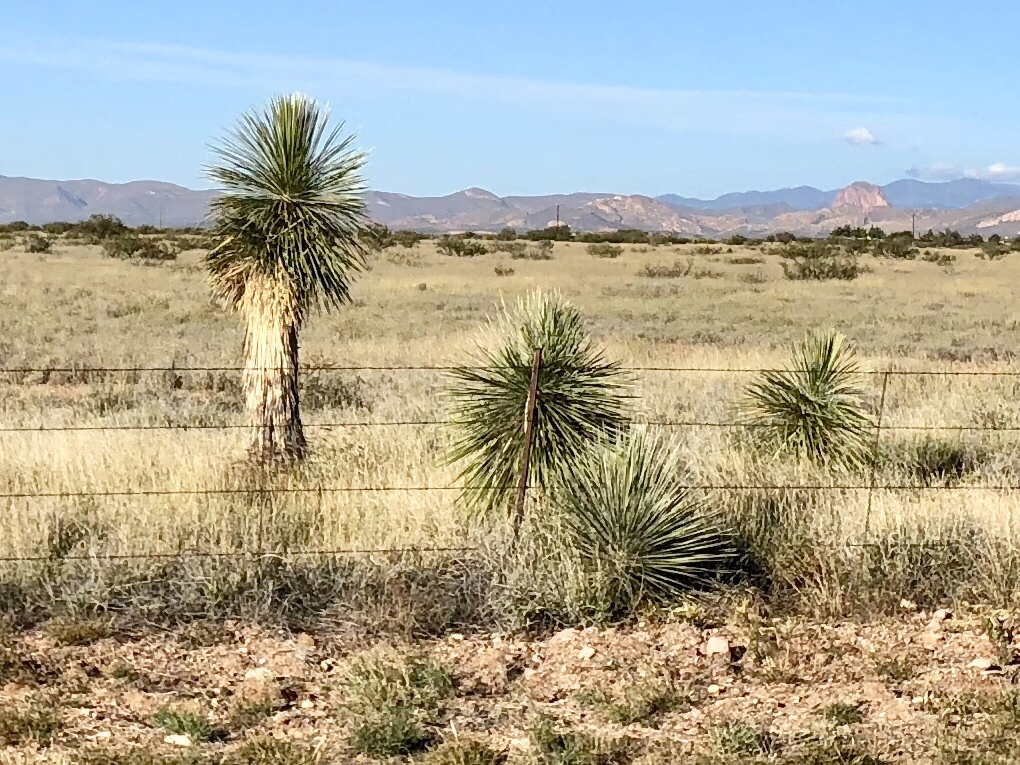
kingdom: Plantae
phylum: Tracheophyta
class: Liliopsida
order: Asparagales
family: Asparagaceae
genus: Yucca
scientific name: Yucca elata
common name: Palmella
